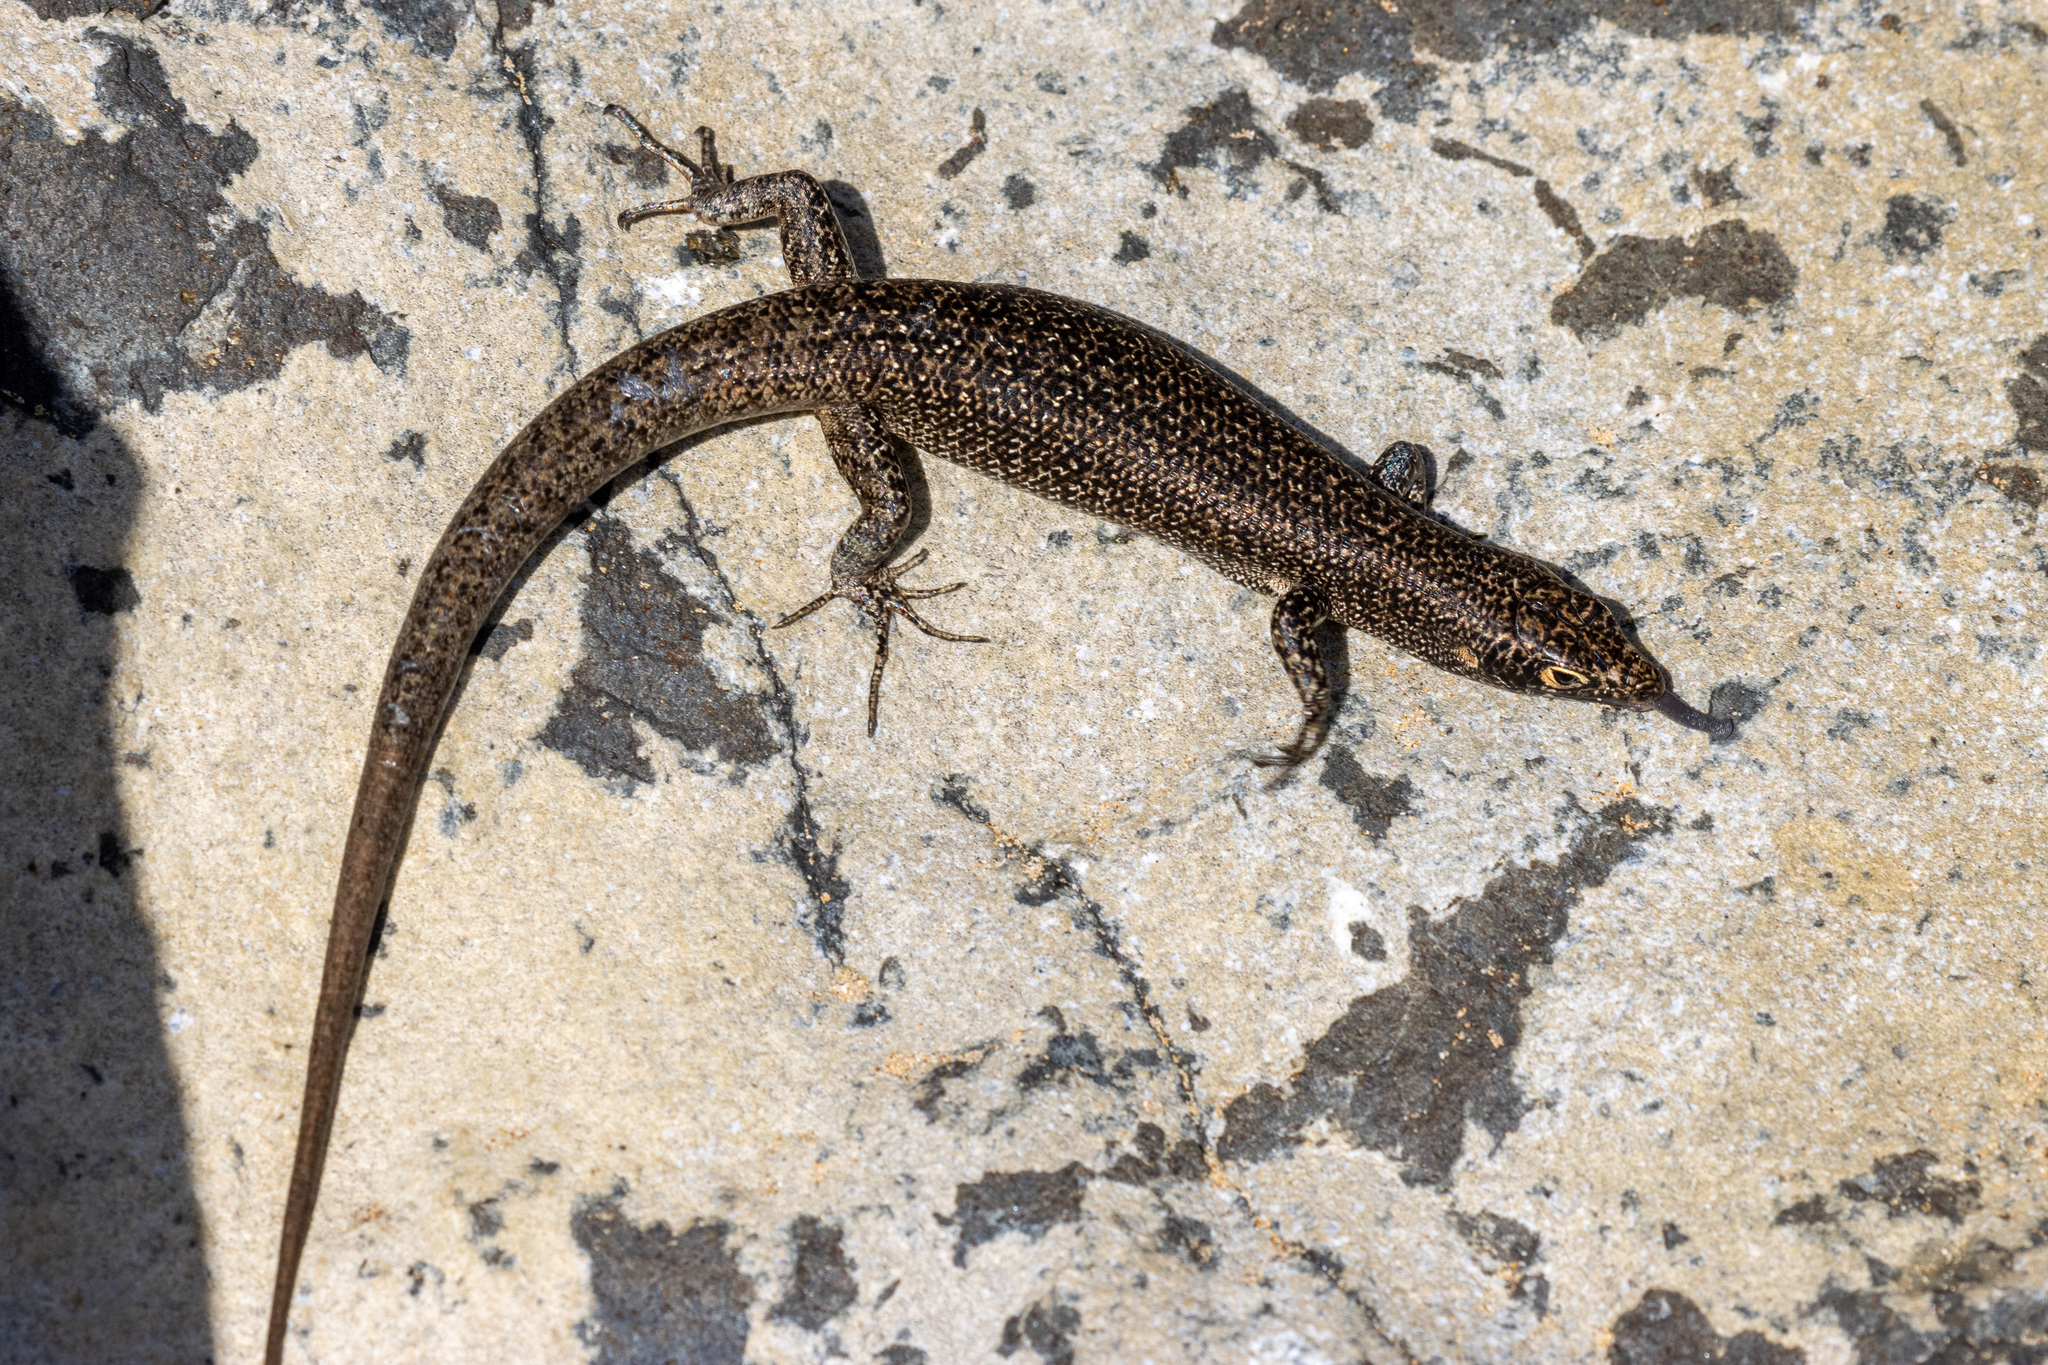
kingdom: Animalia
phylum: Chordata
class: Squamata
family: Scincidae
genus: Trachylepis
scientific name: Trachylepis atlantica
